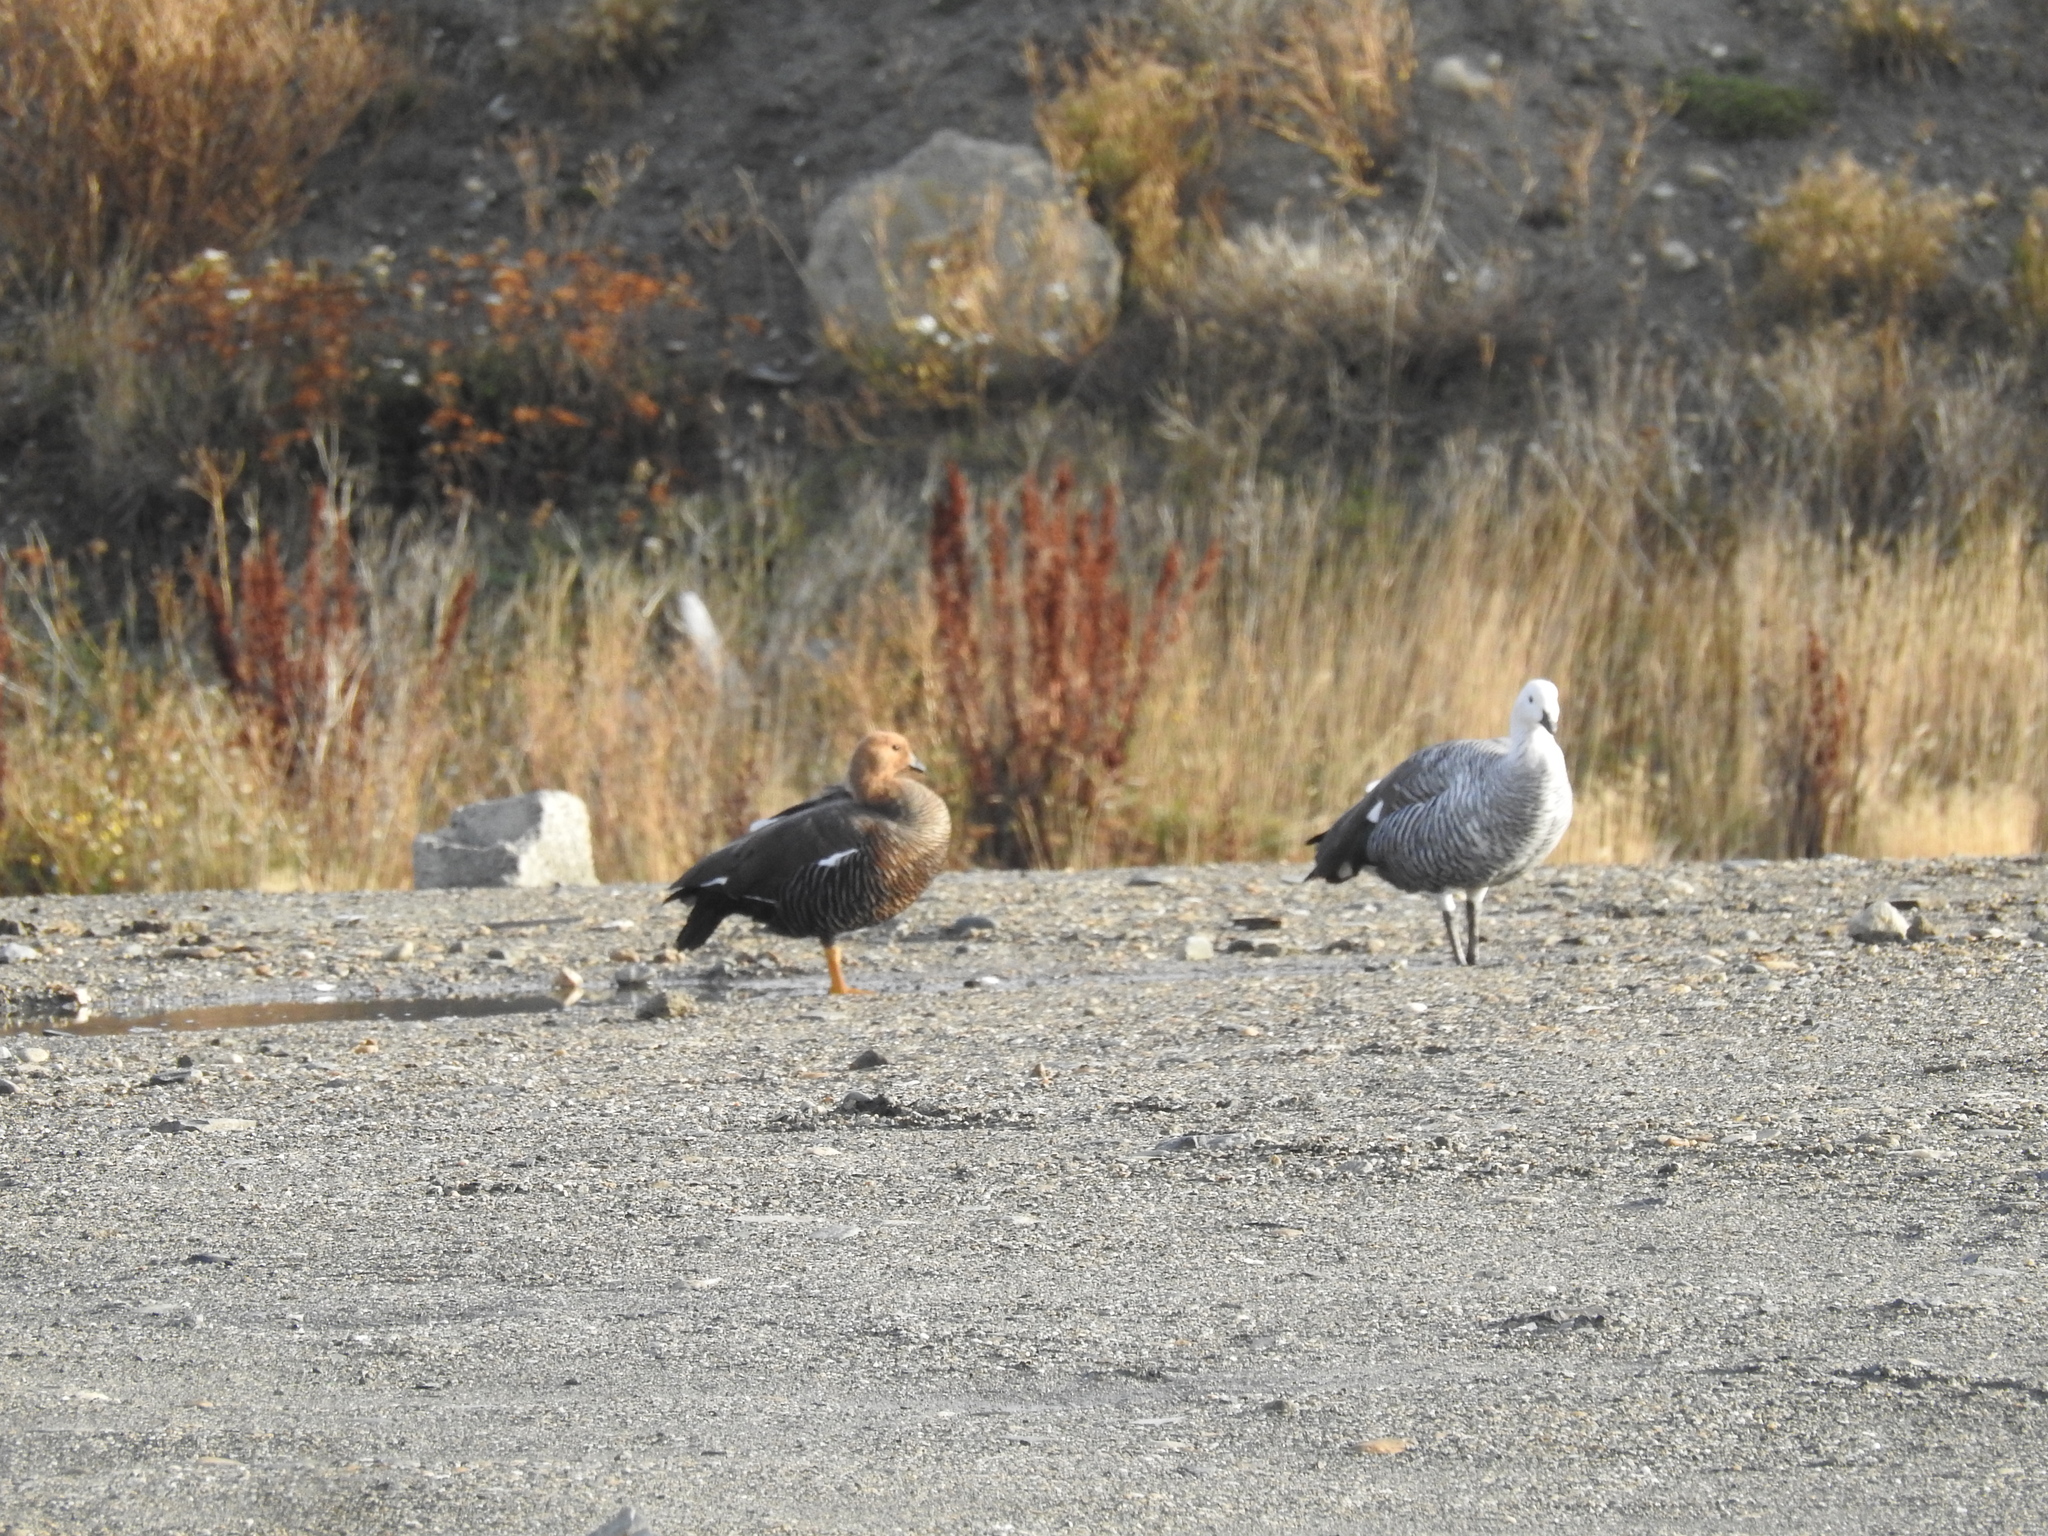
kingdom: Animalia
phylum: Chordata
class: Aves
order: Anseriformes
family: Anatidae
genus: Chloephaga
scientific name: Chloephaga picta
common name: Upland goose
